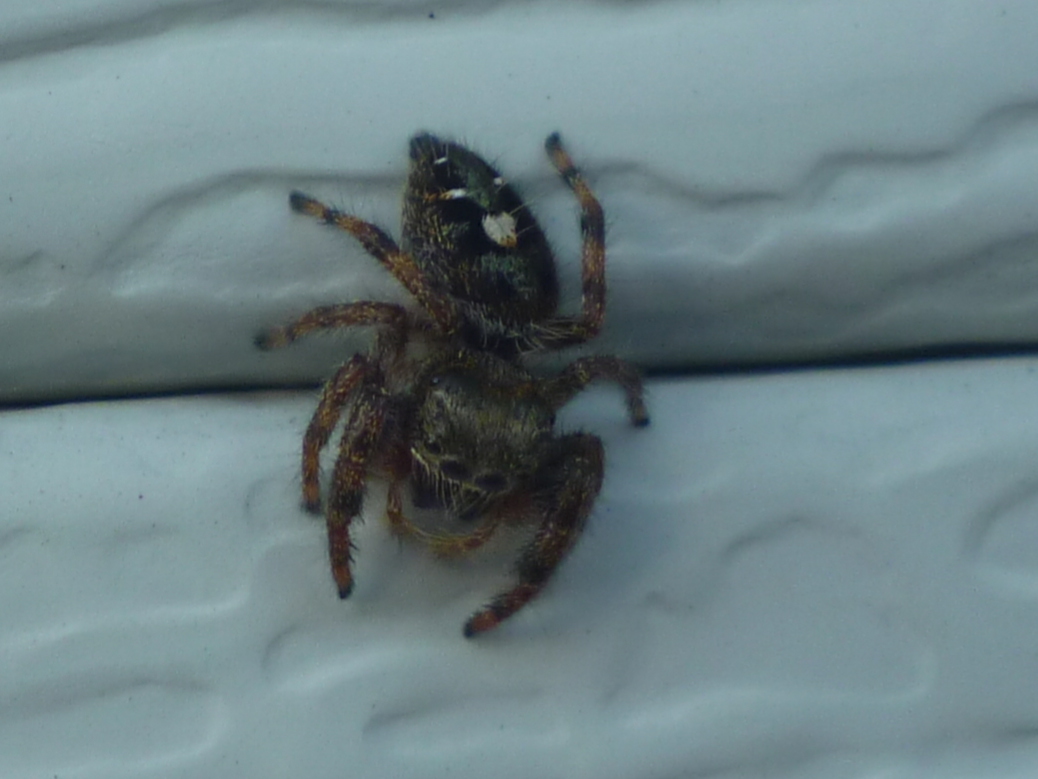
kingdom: Animalia
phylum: Arthropoda
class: Arachnida
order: Araneae
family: Salticidae
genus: Phidippus
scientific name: Phidippus audax
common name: Bold jumper
